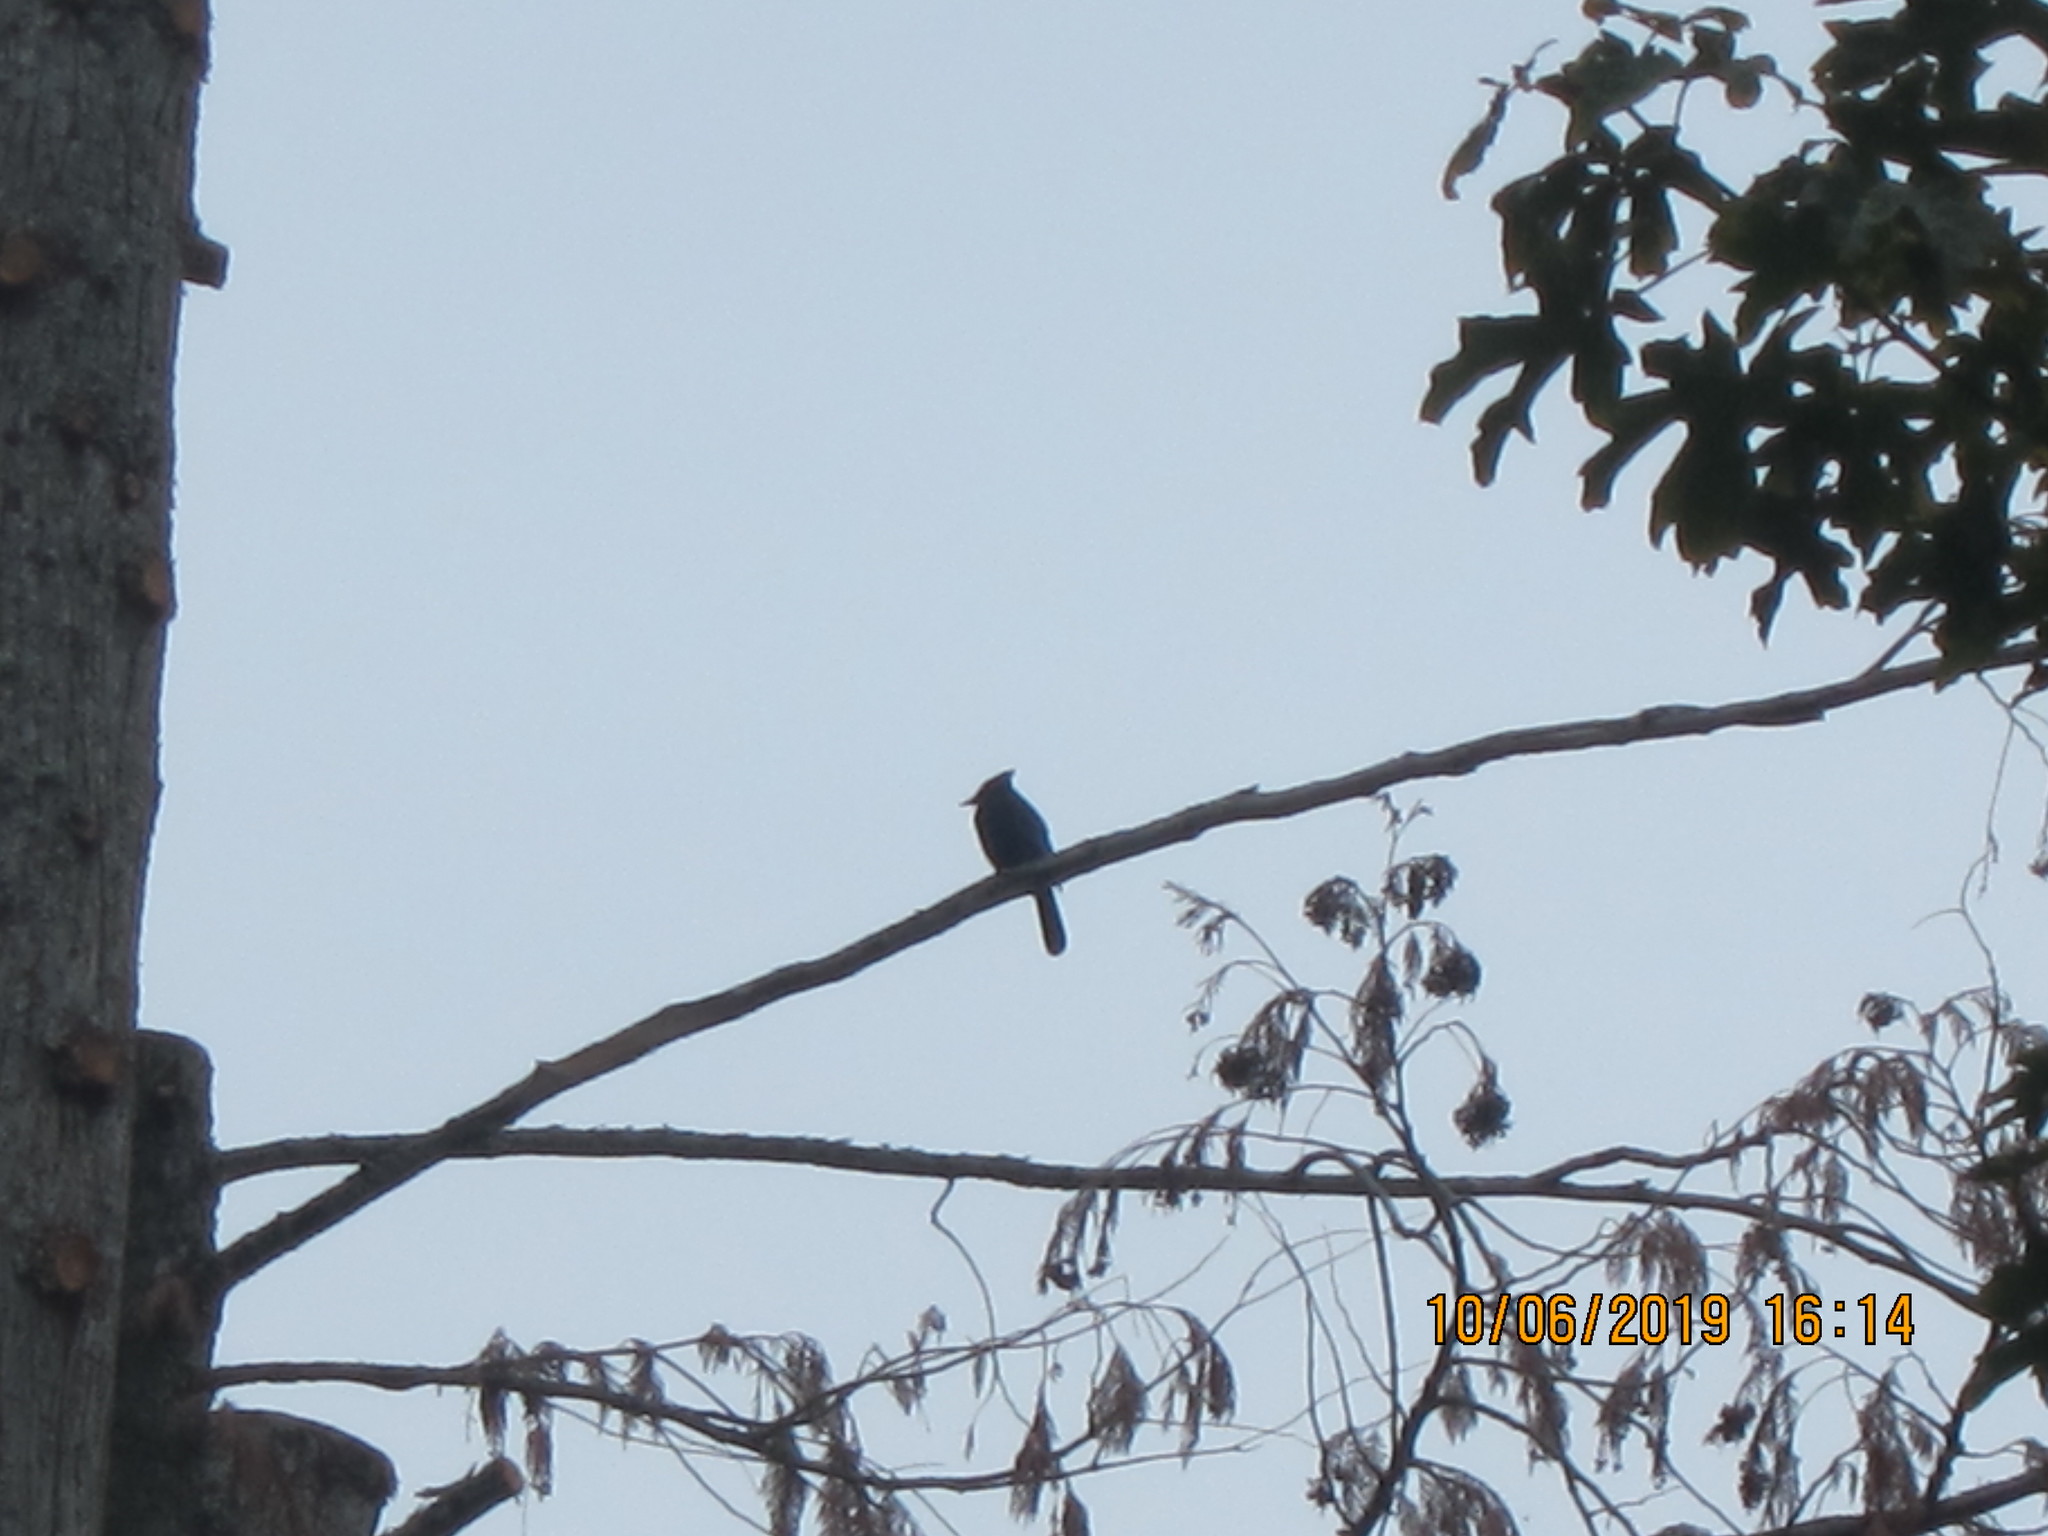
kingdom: Animalia
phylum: Chordata
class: Aves
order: Passeriformes
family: Corvidae
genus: Cyanocitta
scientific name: Cyanocitta stelleri
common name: Steller's jay
